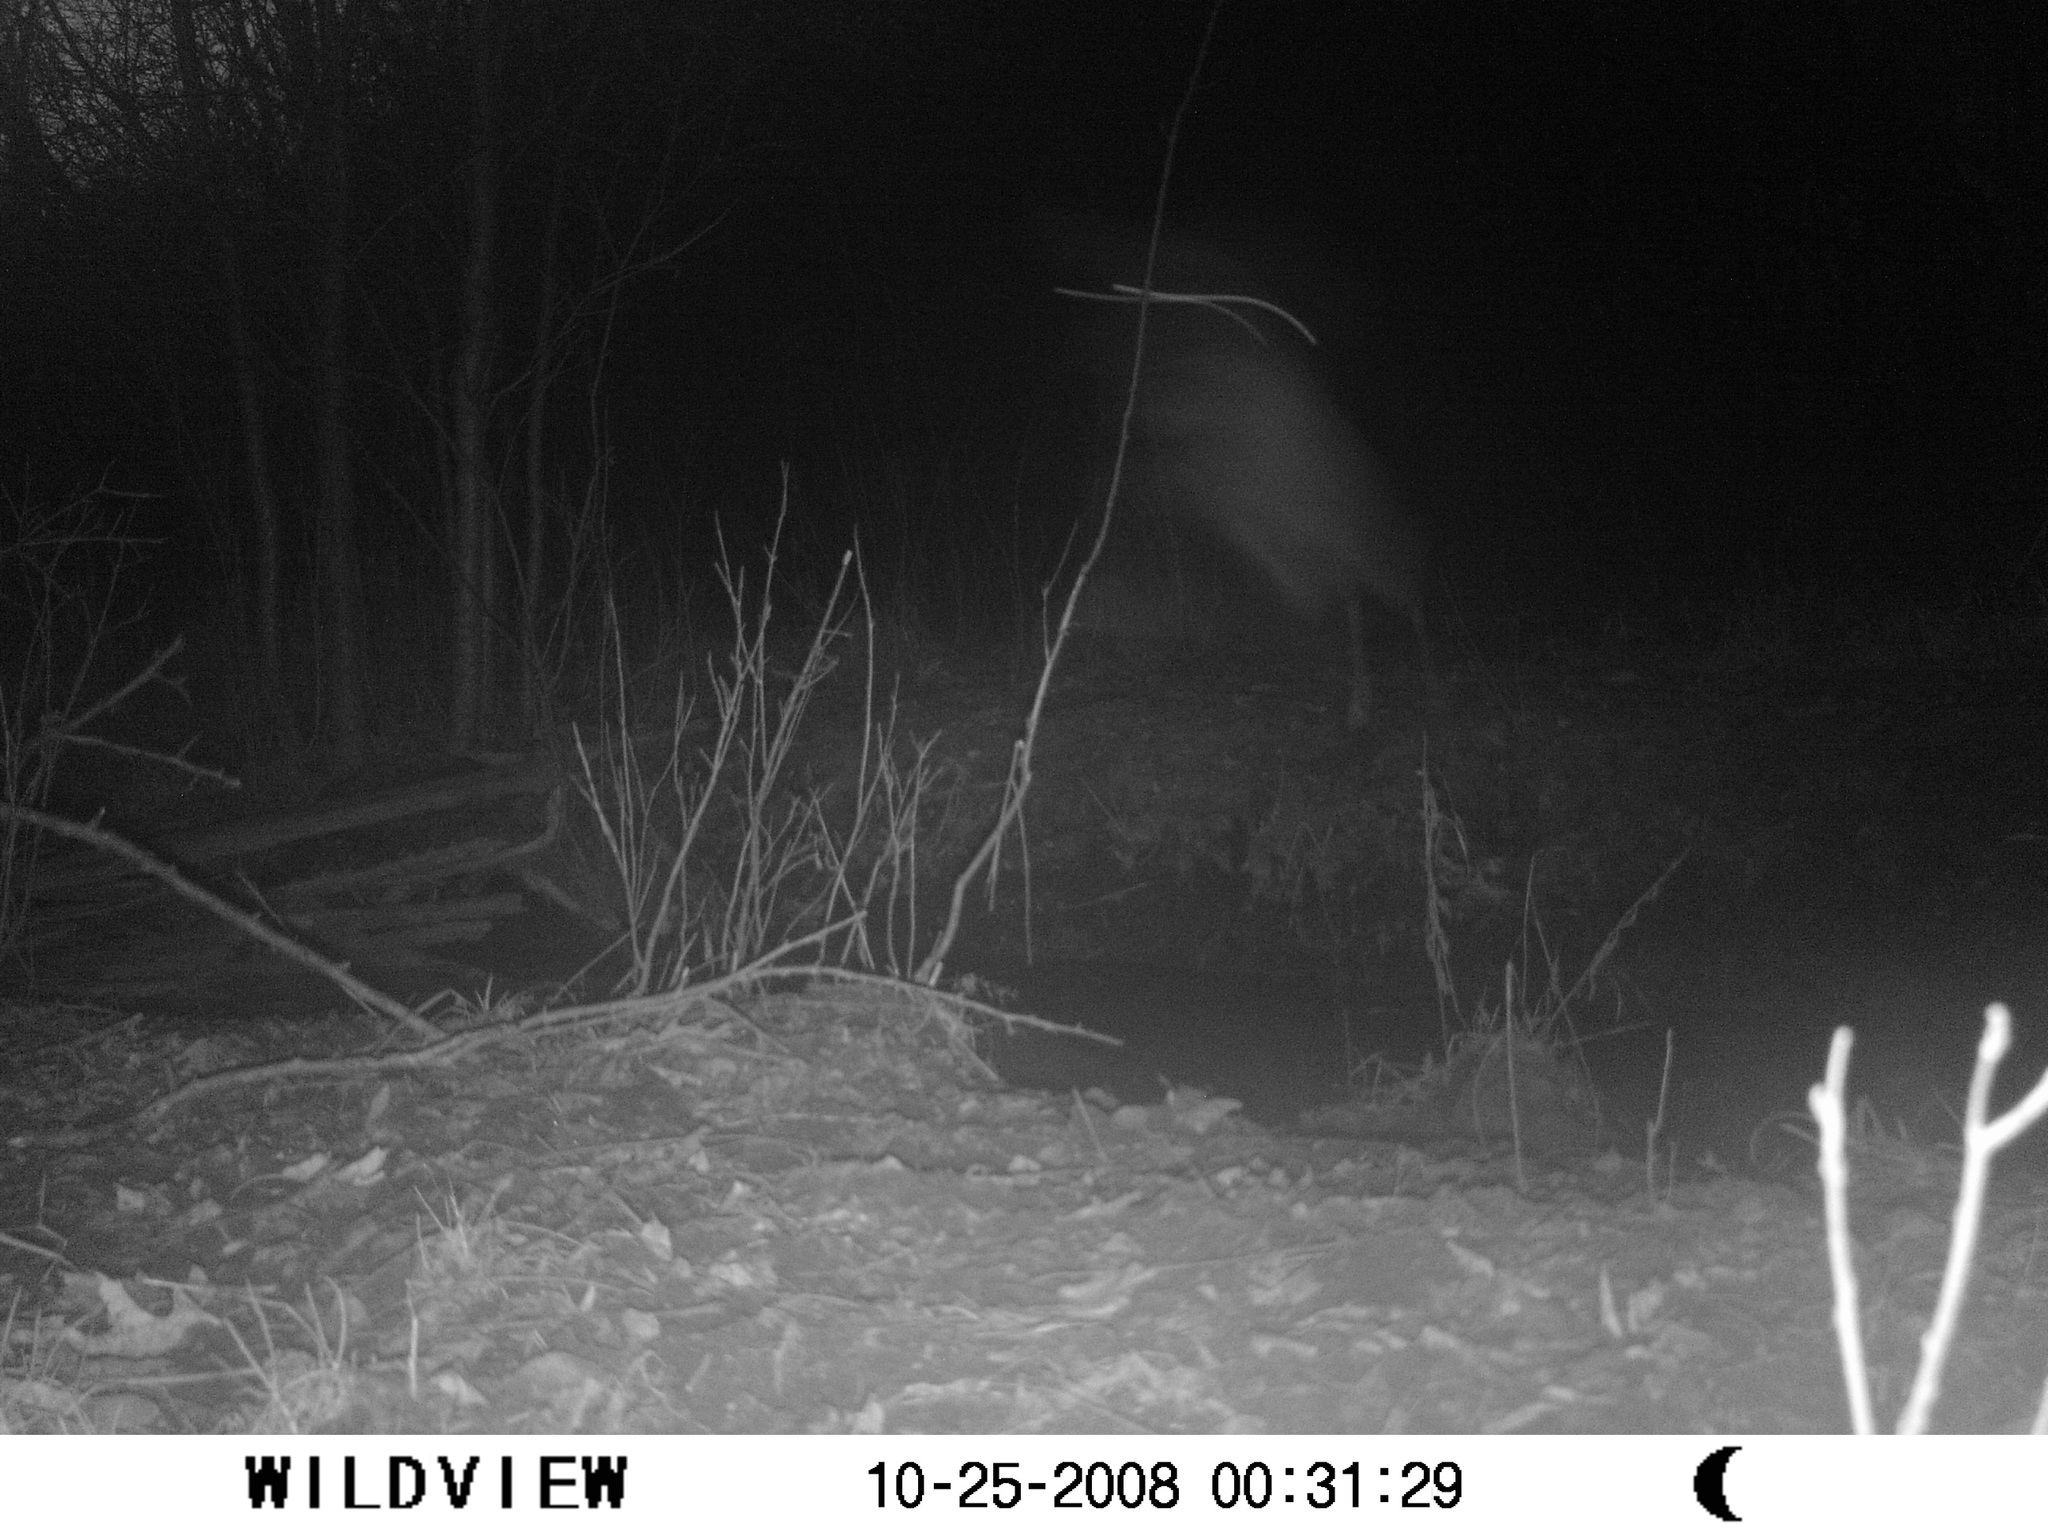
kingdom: Animalia
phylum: Chordata
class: Mammalia
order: Artiodactyla
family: Cervidae
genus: Odocoileus
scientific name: Odocoileus virginianus
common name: White-tailed deer
